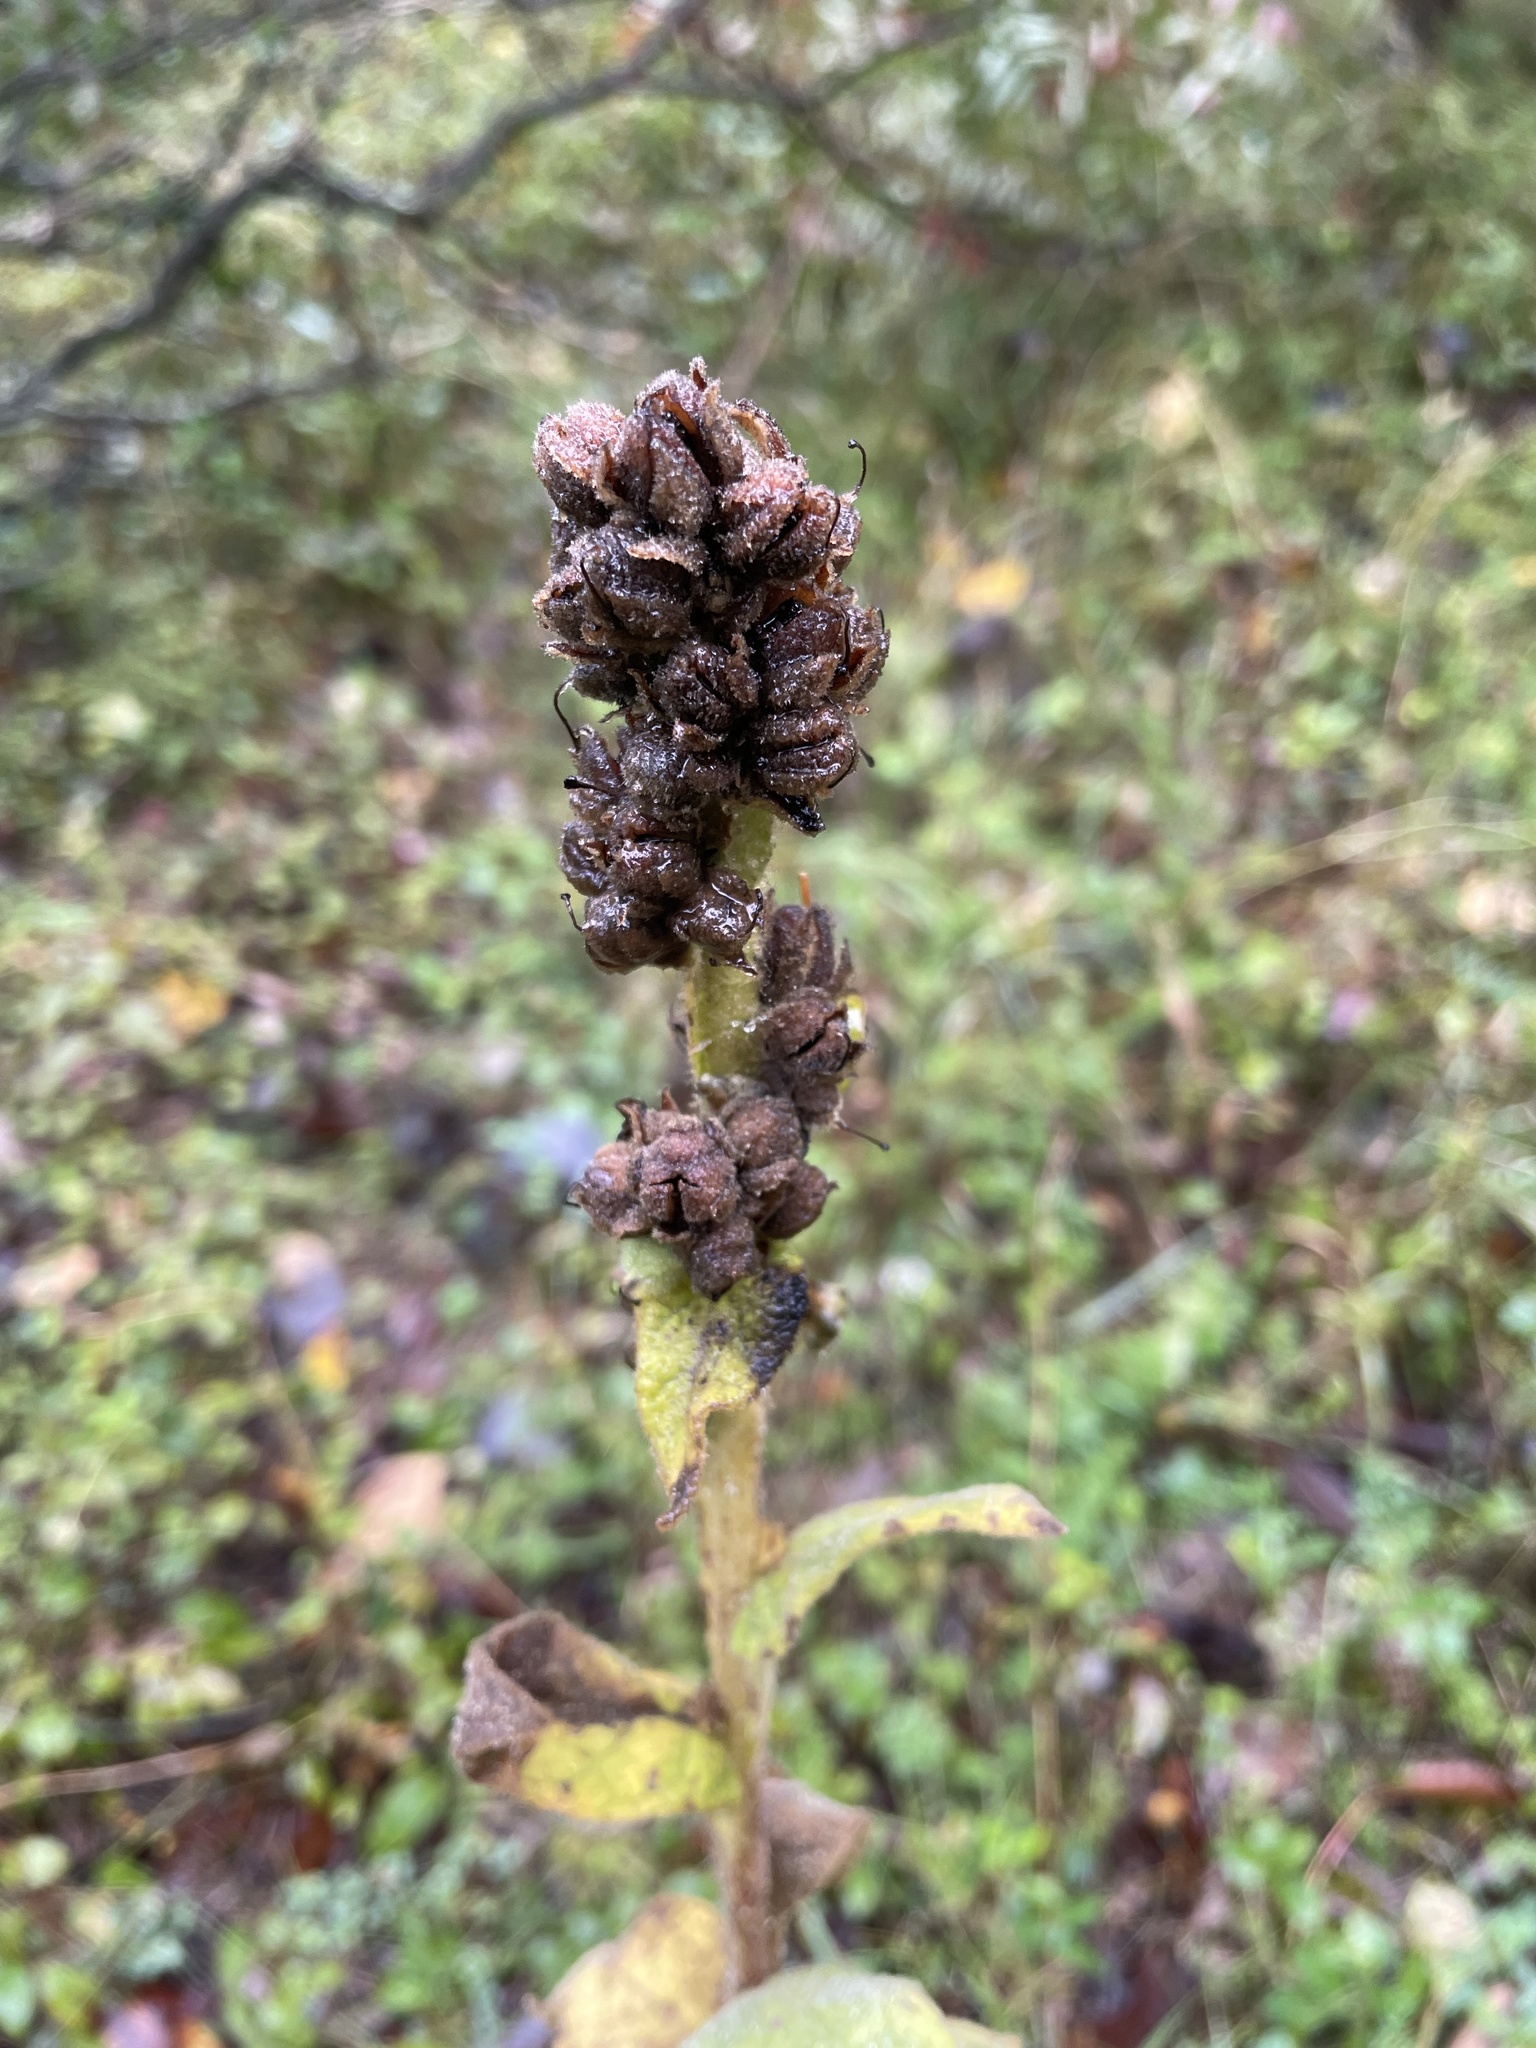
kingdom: Plantae
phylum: Tracheophyta
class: Magnoliopsida
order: Lamiales
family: Scrophulariaceae
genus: Verbascum
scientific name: Verbascum thapsus
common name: Common mullein
